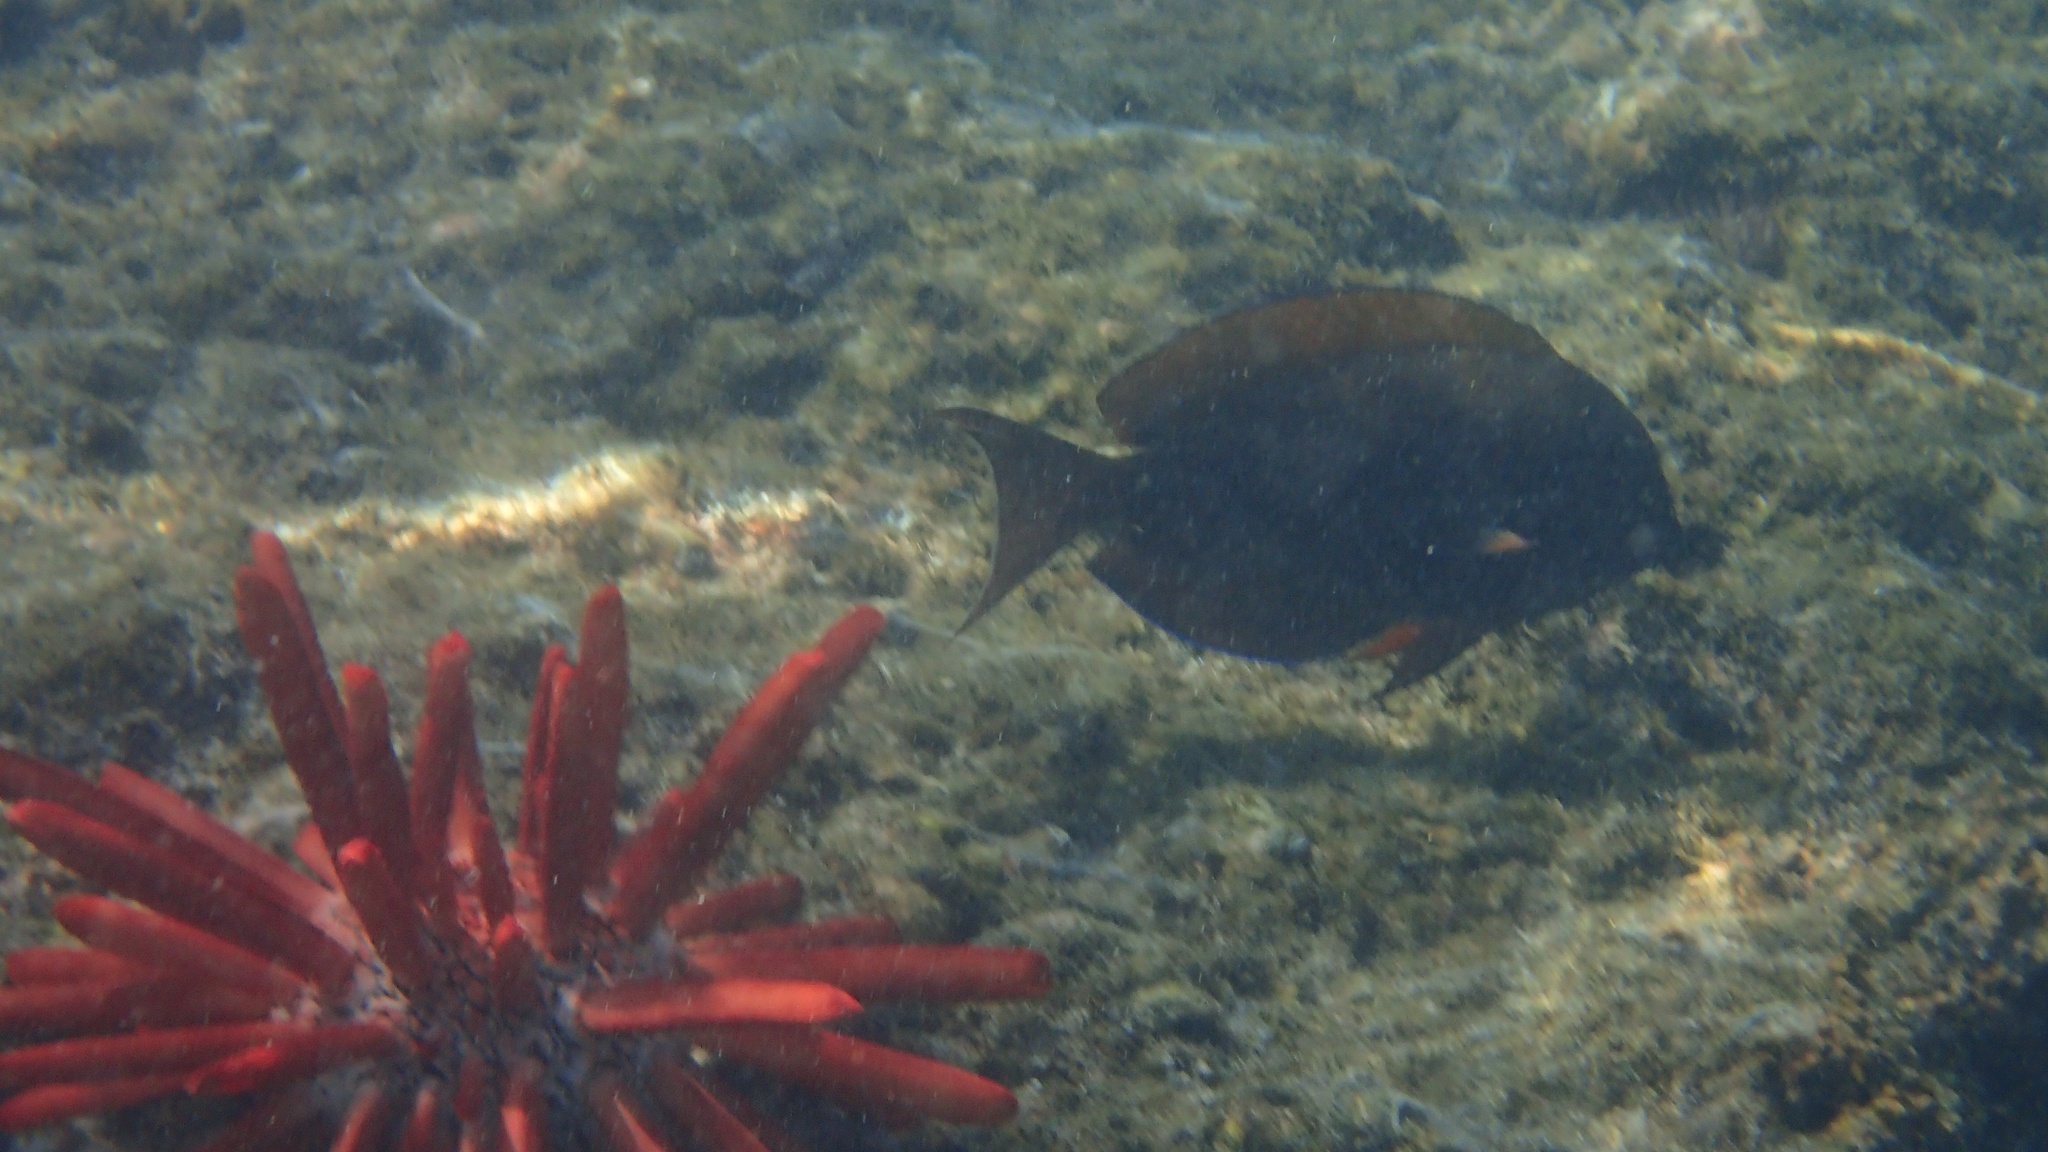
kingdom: Animalia
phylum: Echinodermata
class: Echinoidea
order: Camarodonta
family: Echinometridae
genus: Heterocentrotus
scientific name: Heterocentrotus mamillatus
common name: Slate pencil urchin
